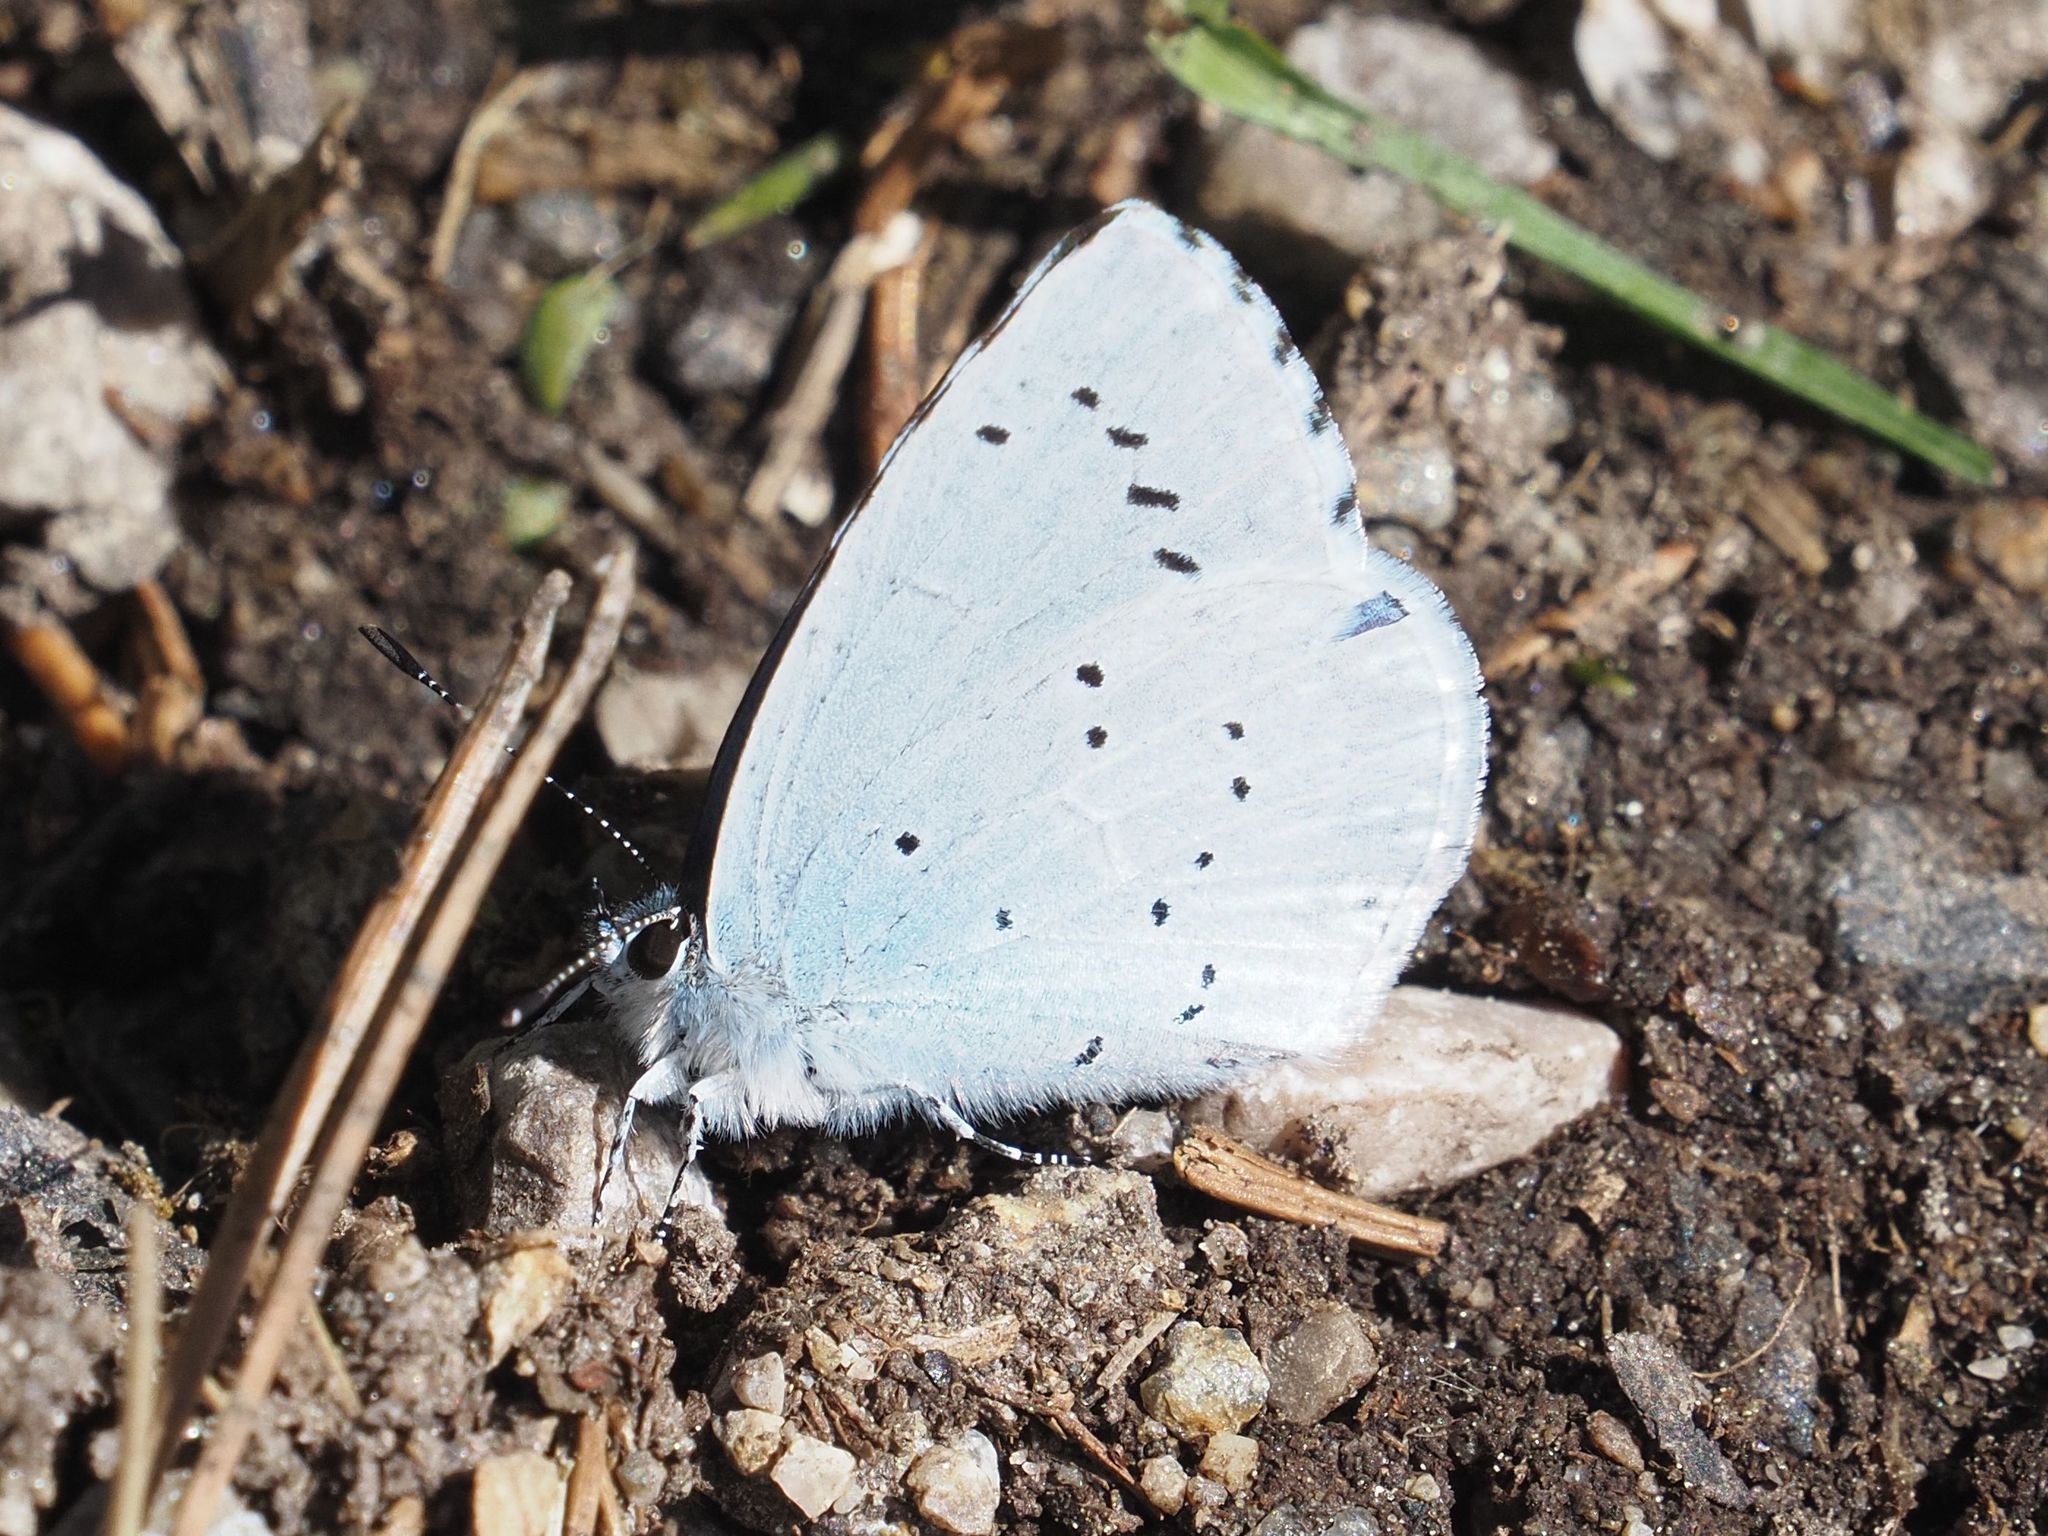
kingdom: Animalia
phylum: Arthropoda
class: Insecta
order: Lepidoptera
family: Lycaenidae
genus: Celastrina
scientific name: Celastrina argiolus
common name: Holly blue
